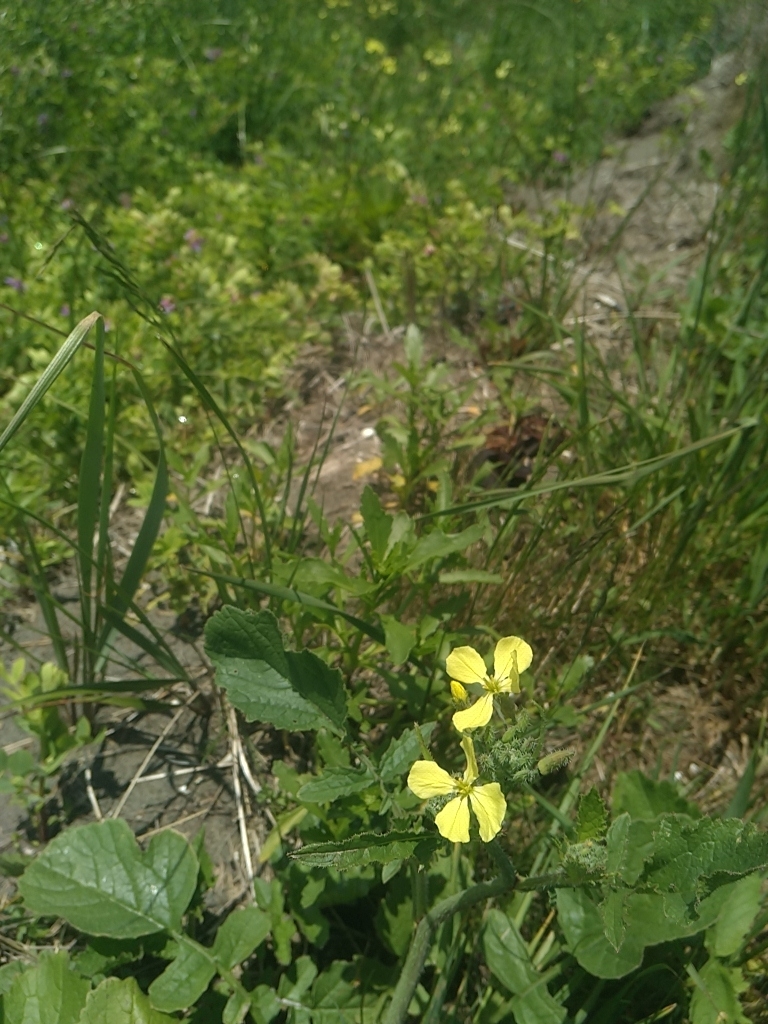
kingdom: Plantae
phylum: Tracheophyta
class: Magnoliopsida
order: Brassicales
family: Brassicaceae
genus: Raphanus
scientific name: Raphanus raphanistrum
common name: Wild radish
